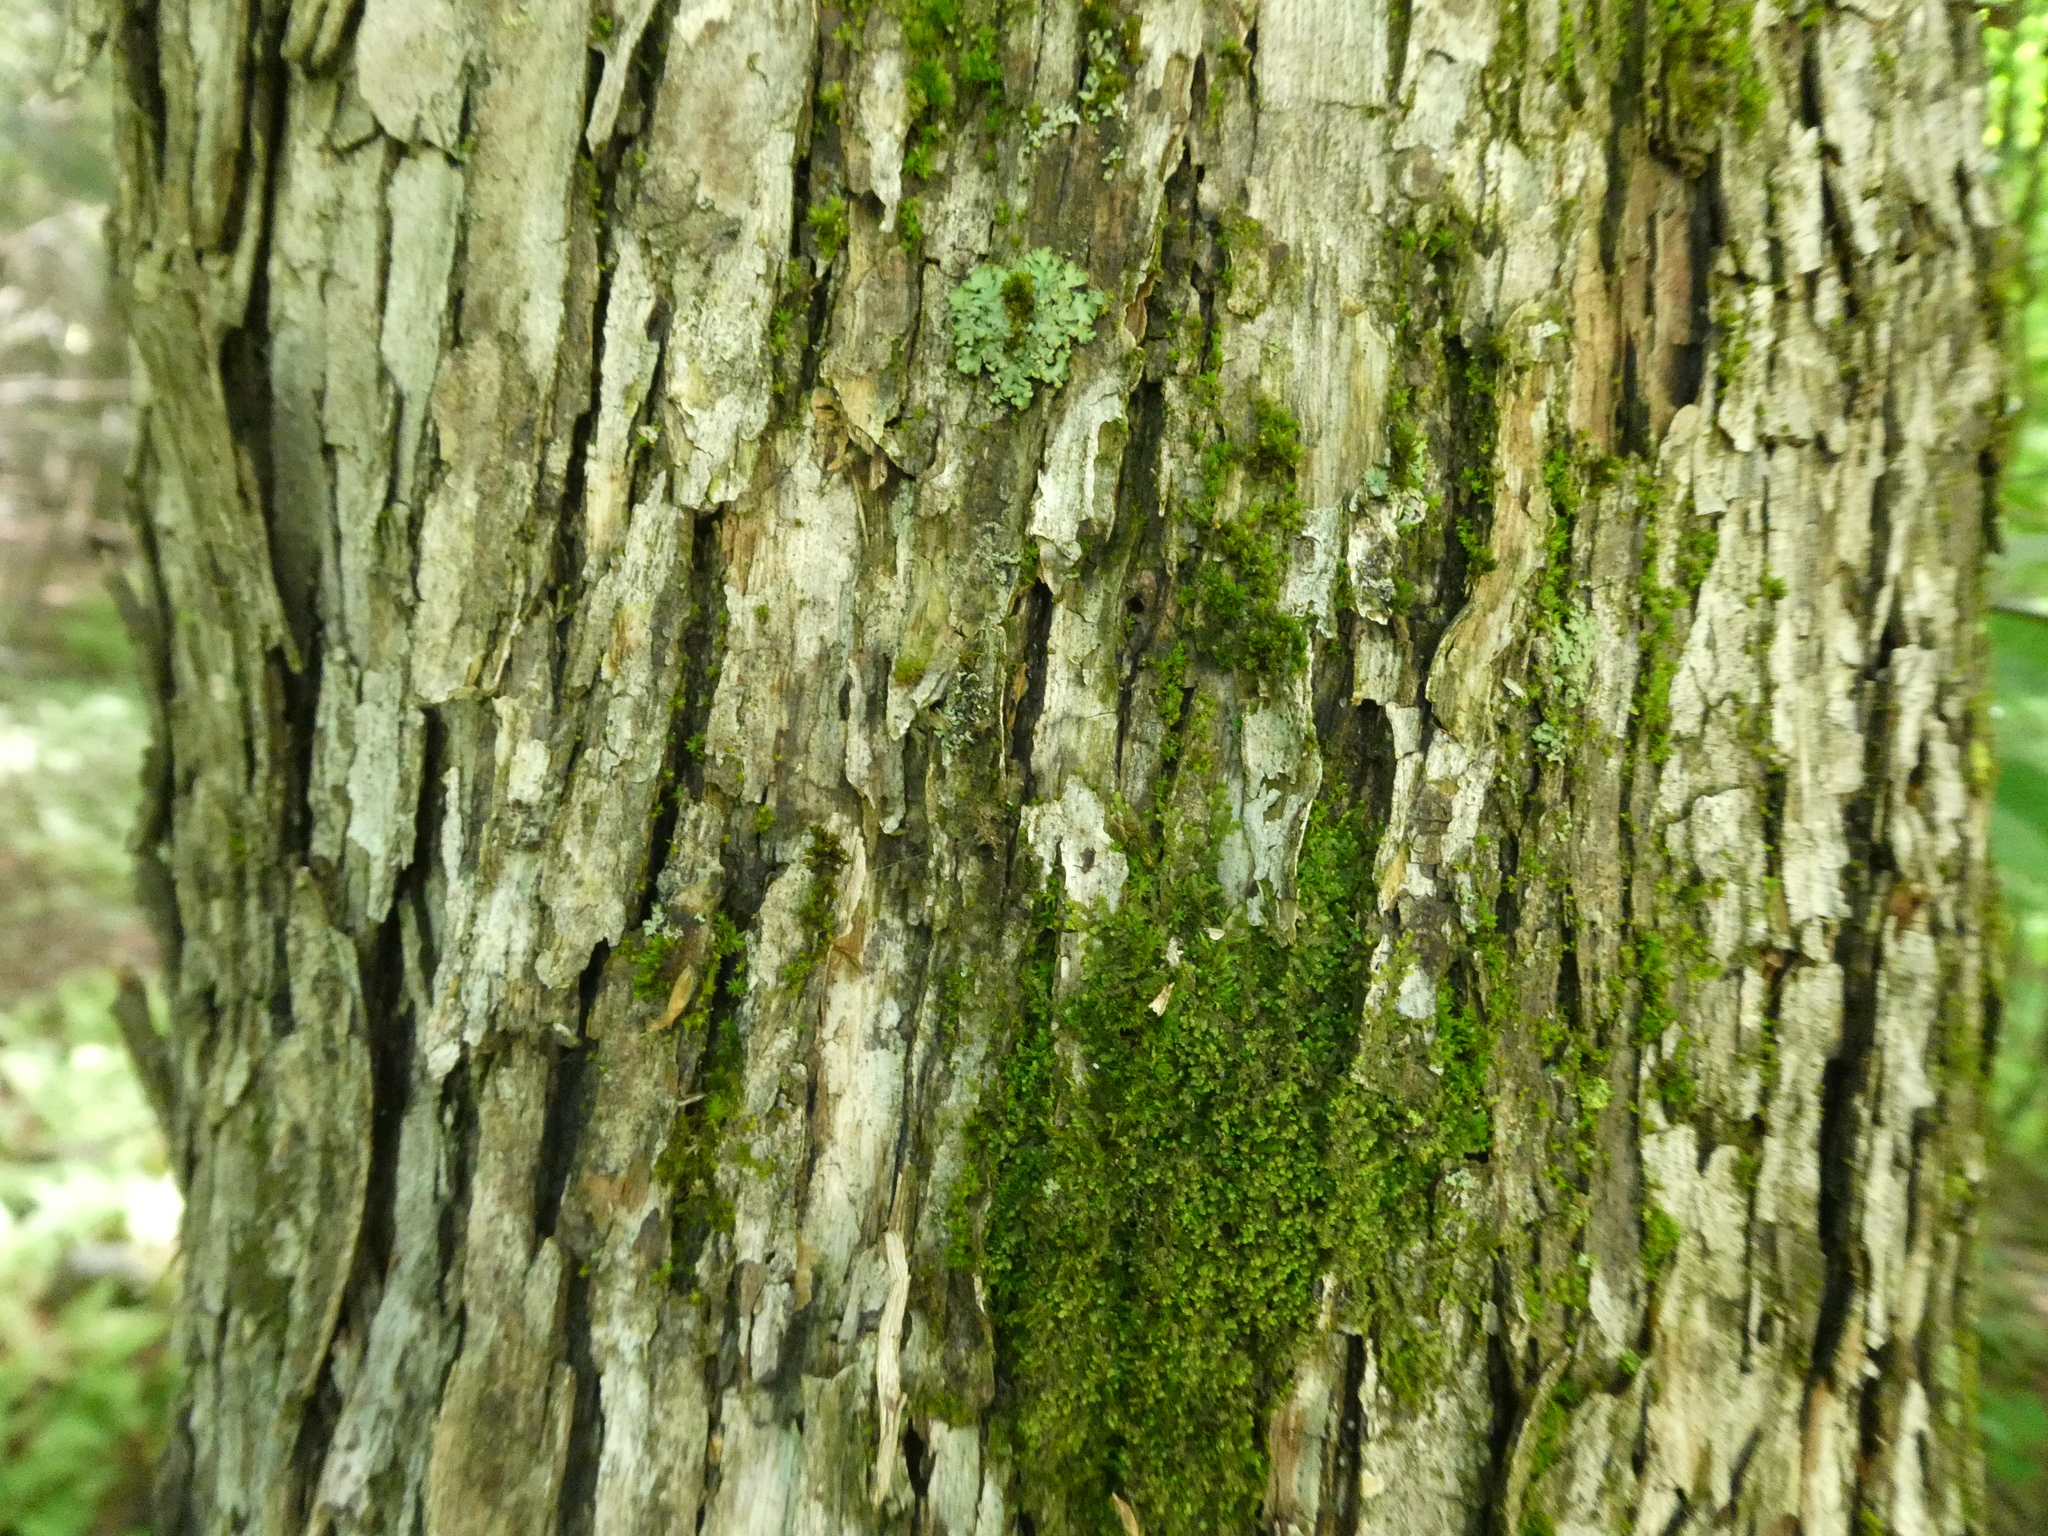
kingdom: Plantae
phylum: Tracheophyta
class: Magnoliopsida
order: Fagales
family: Betulaceae
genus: Ostrya
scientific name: Ostrya virginiana
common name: Ironwood
